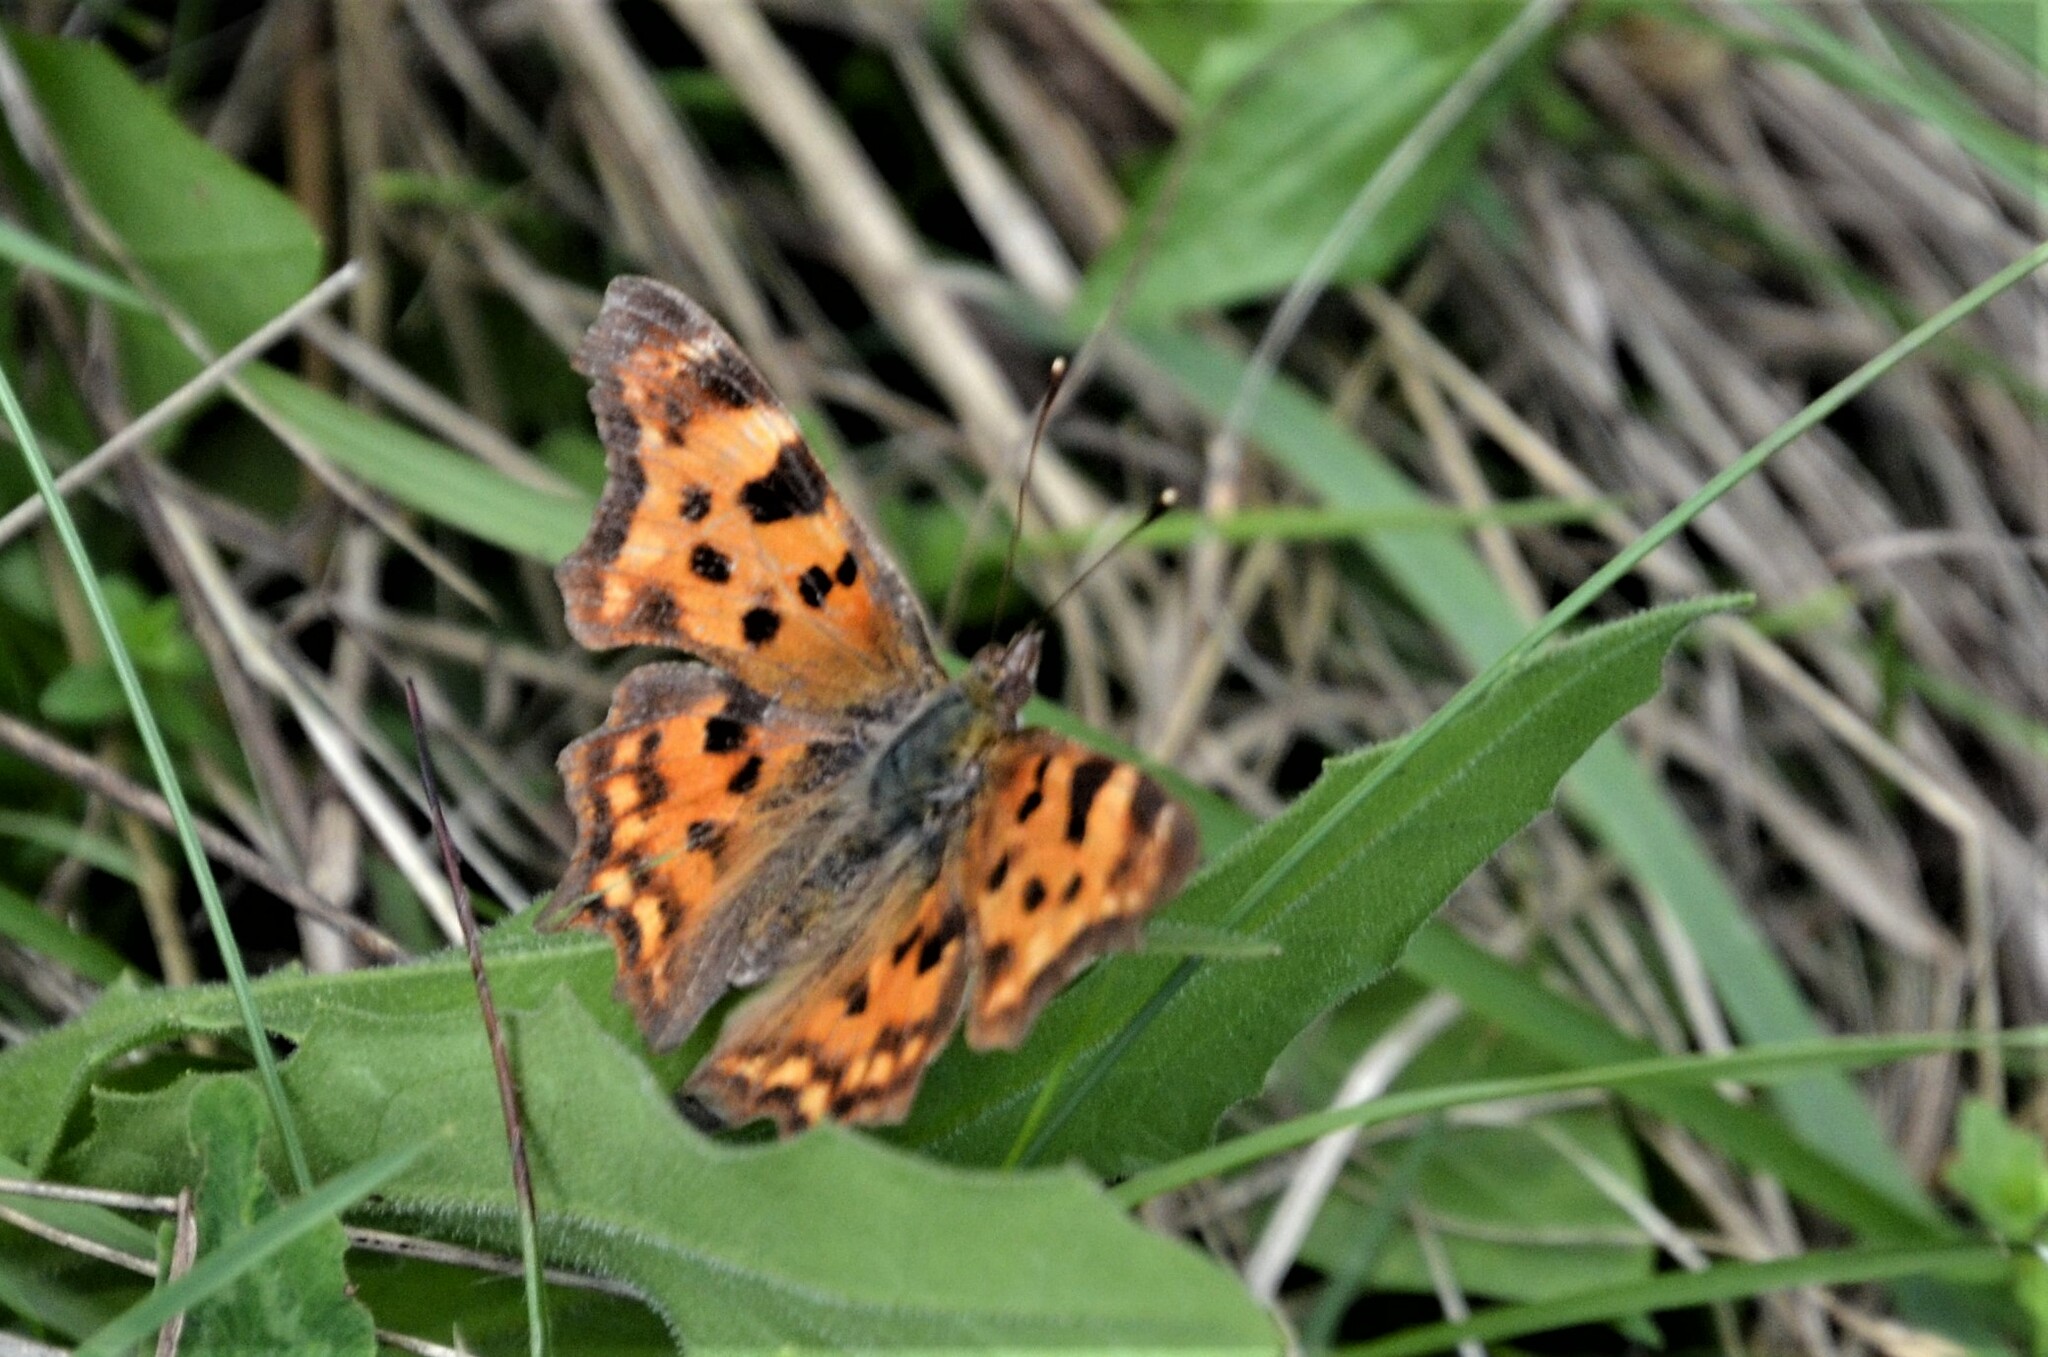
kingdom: Animalia
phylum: Arthropoda
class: Insecta
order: Lepidoptera
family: Nymphalidae
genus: Polygonia
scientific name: Polygonia c-album
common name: Comma
